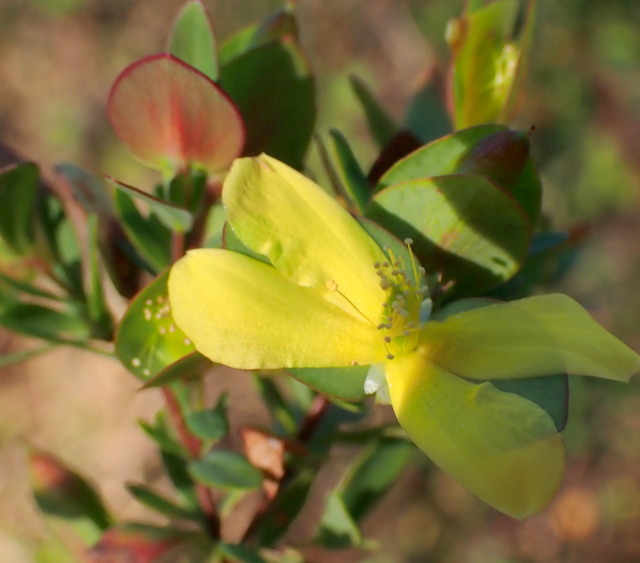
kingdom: Plantae
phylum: Tracheophyta
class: Magnoliopsida
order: Malpighiales
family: Hypericaceae
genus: Hypericum
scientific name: Hypericum hypericoides
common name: St. andrew's cross
